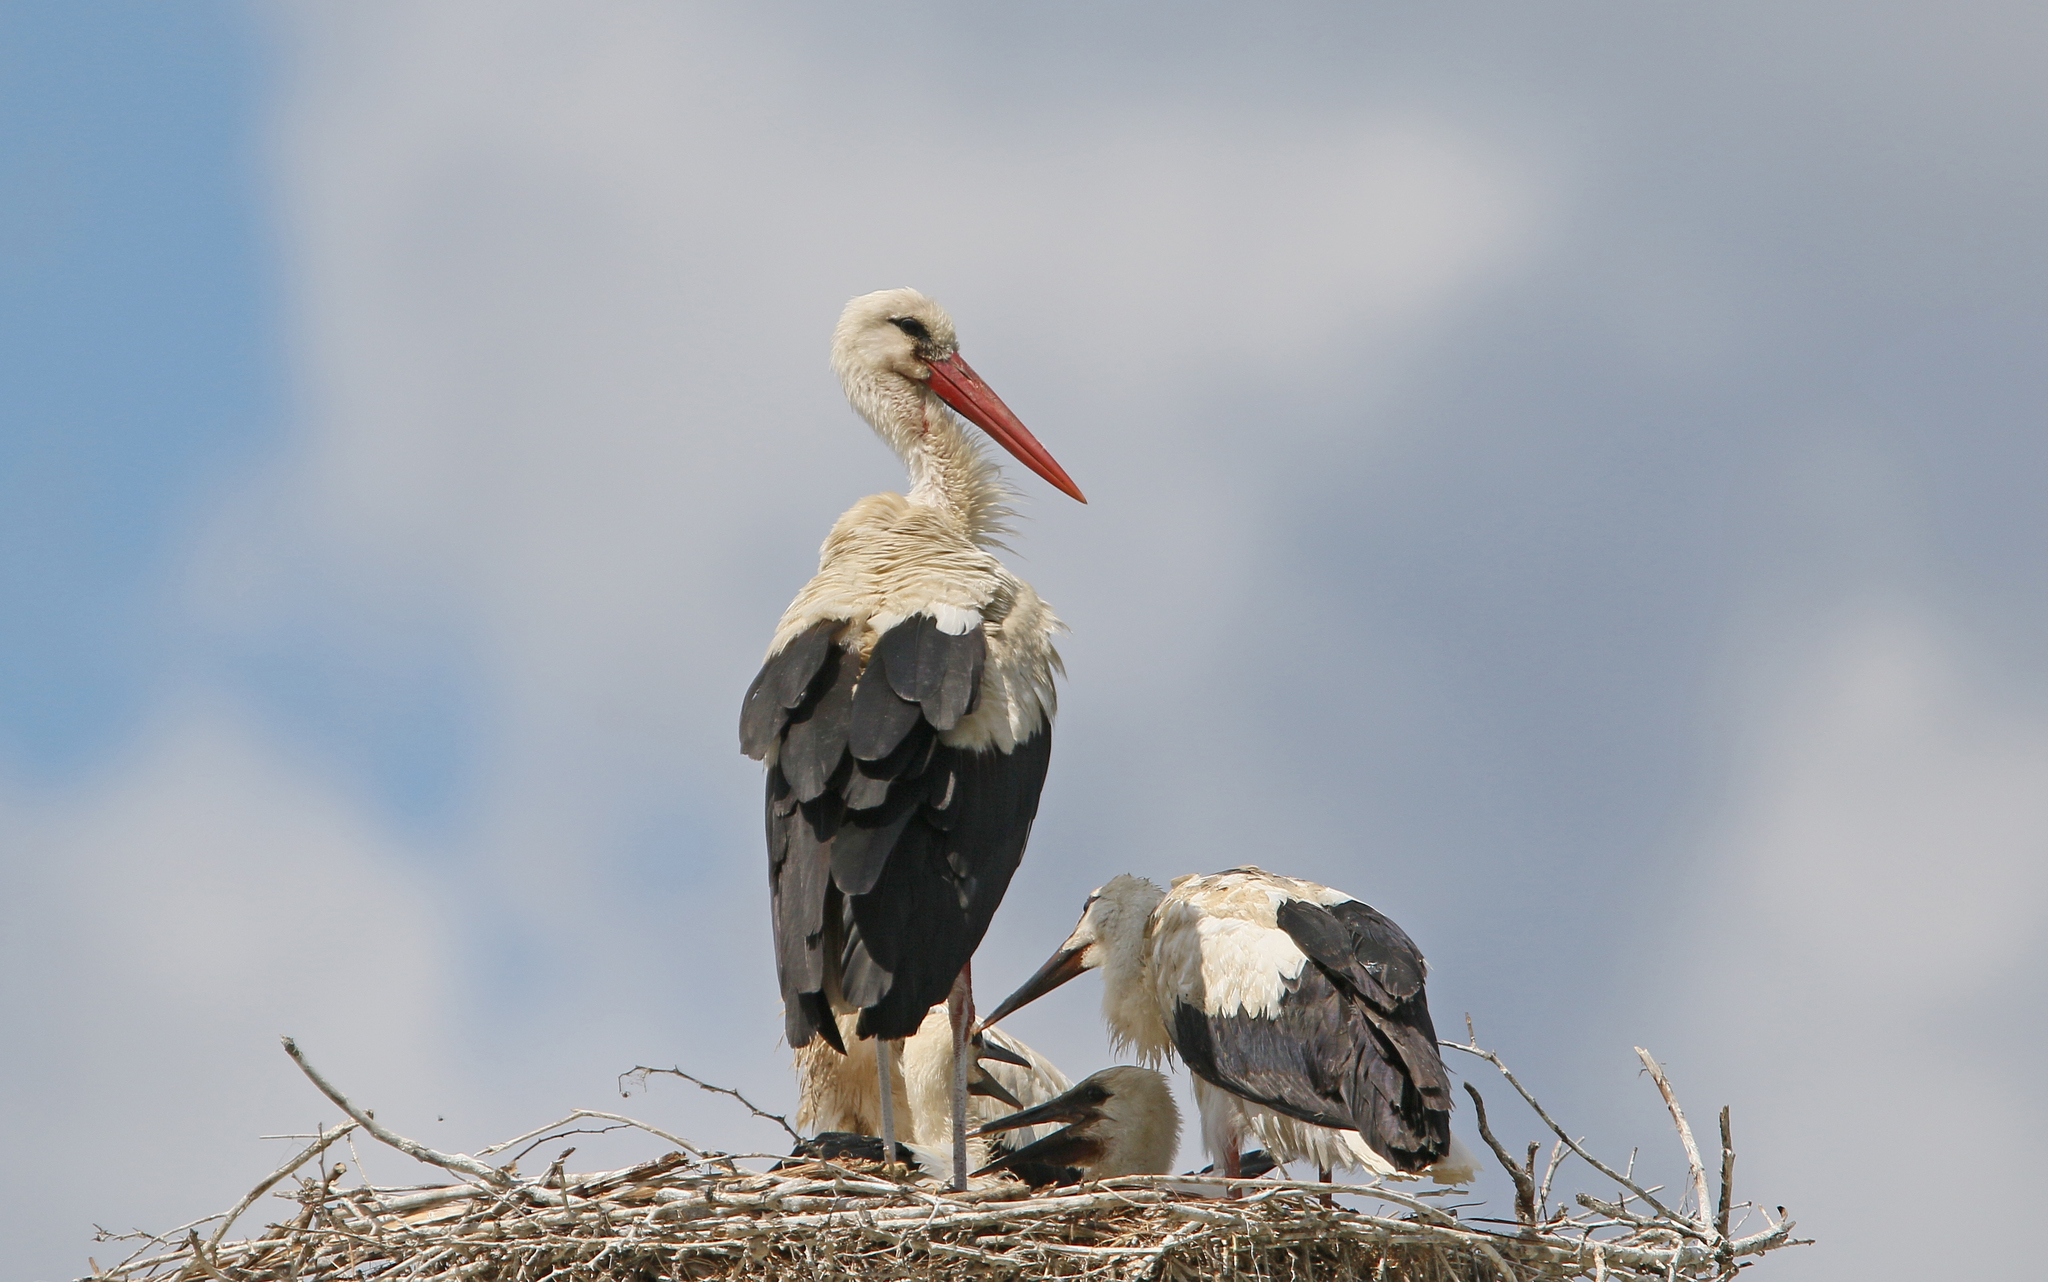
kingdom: Animalia
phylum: Chordata
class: Aves
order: Ciconiiformes
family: Ciconiidae
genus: Ciconia
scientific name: Ciconia ciconia
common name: White stork
